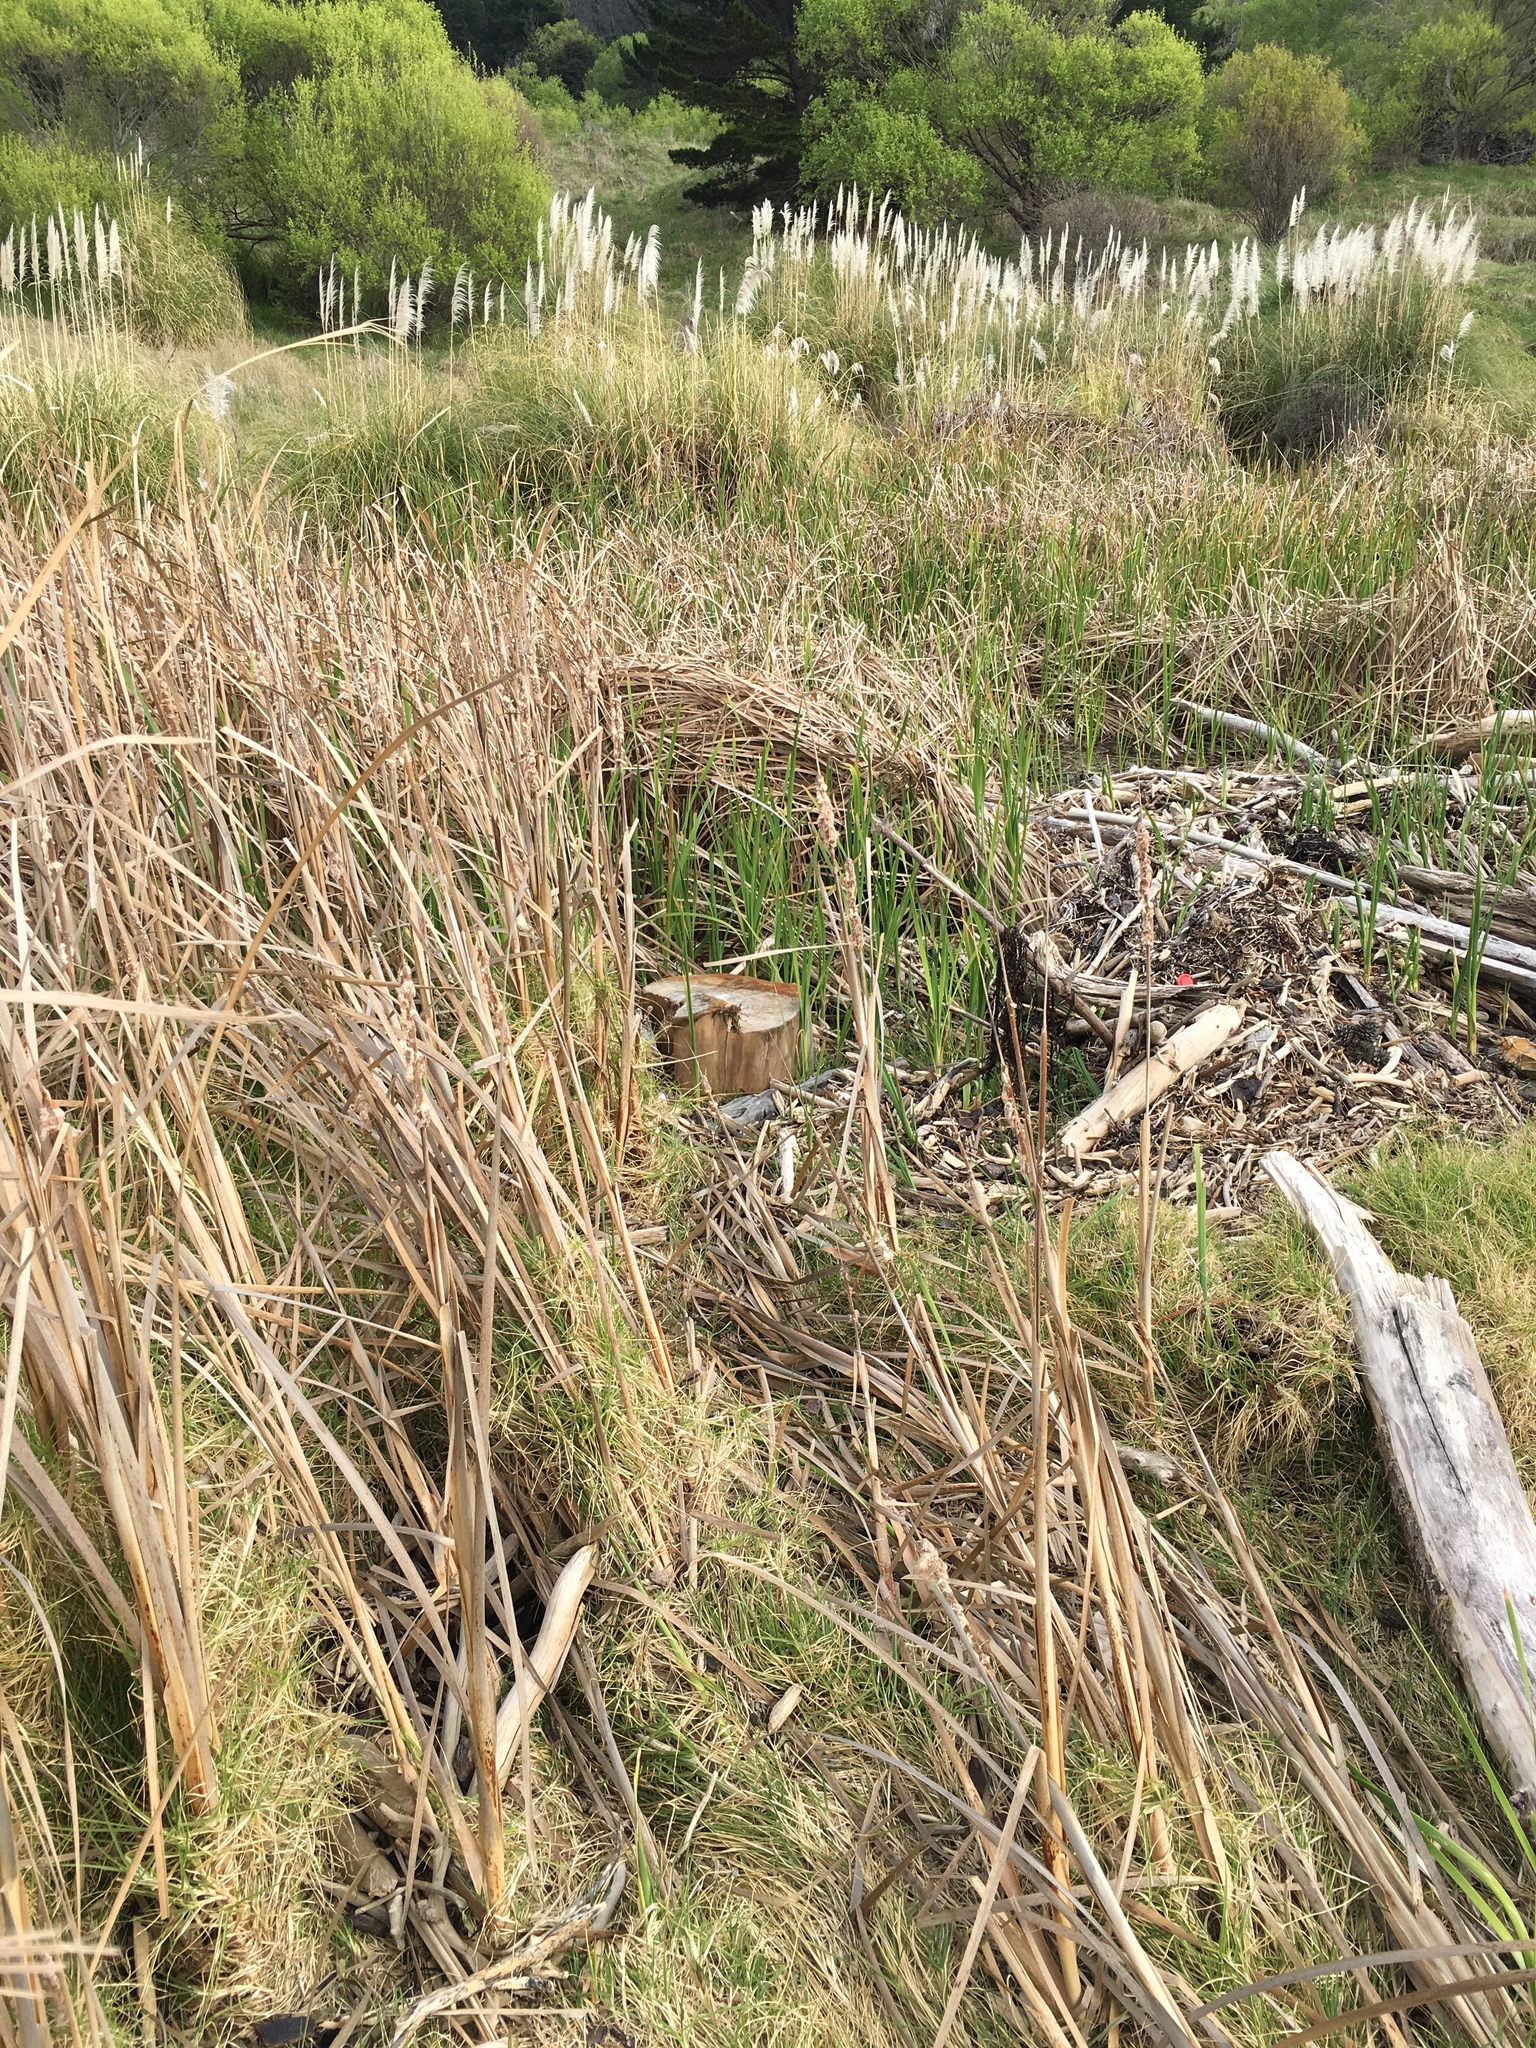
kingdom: Plantae
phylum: Tracheophyta
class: Liliopsida
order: Poales
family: Typhaceae
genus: Typha
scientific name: Typha orientalis
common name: Bullrush
